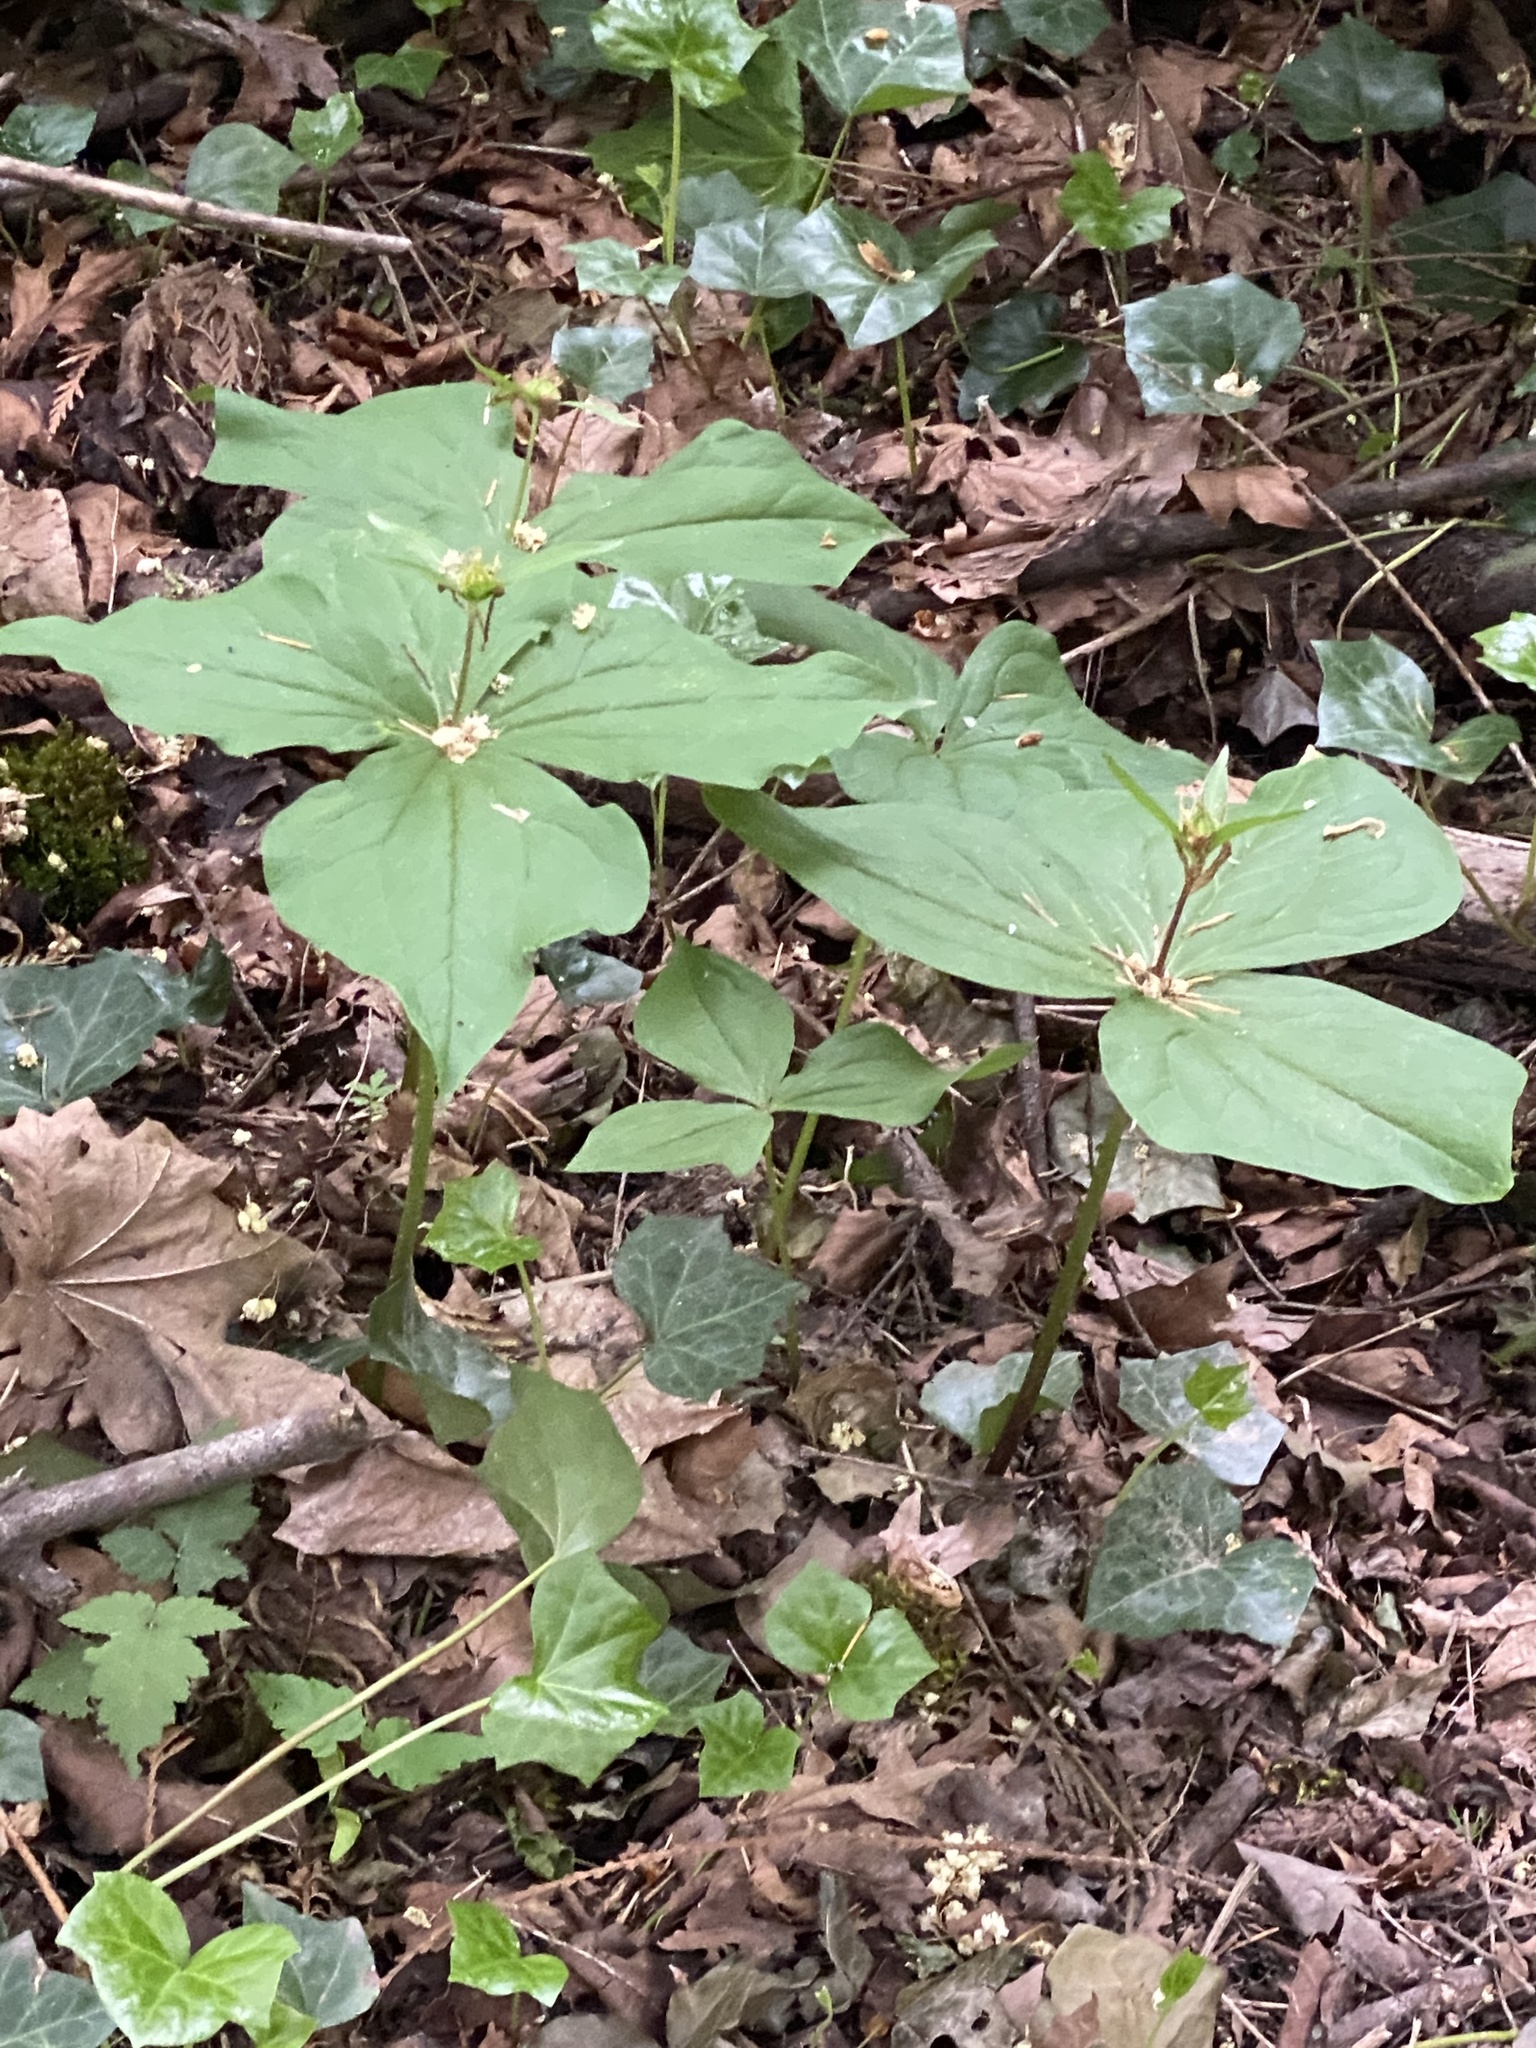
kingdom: Plantae
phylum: Tracheophyta
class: Liliopsida
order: Liliales
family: Melanthiaceae
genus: Trillium
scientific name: Trillium ovatum
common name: Pacific trillium
